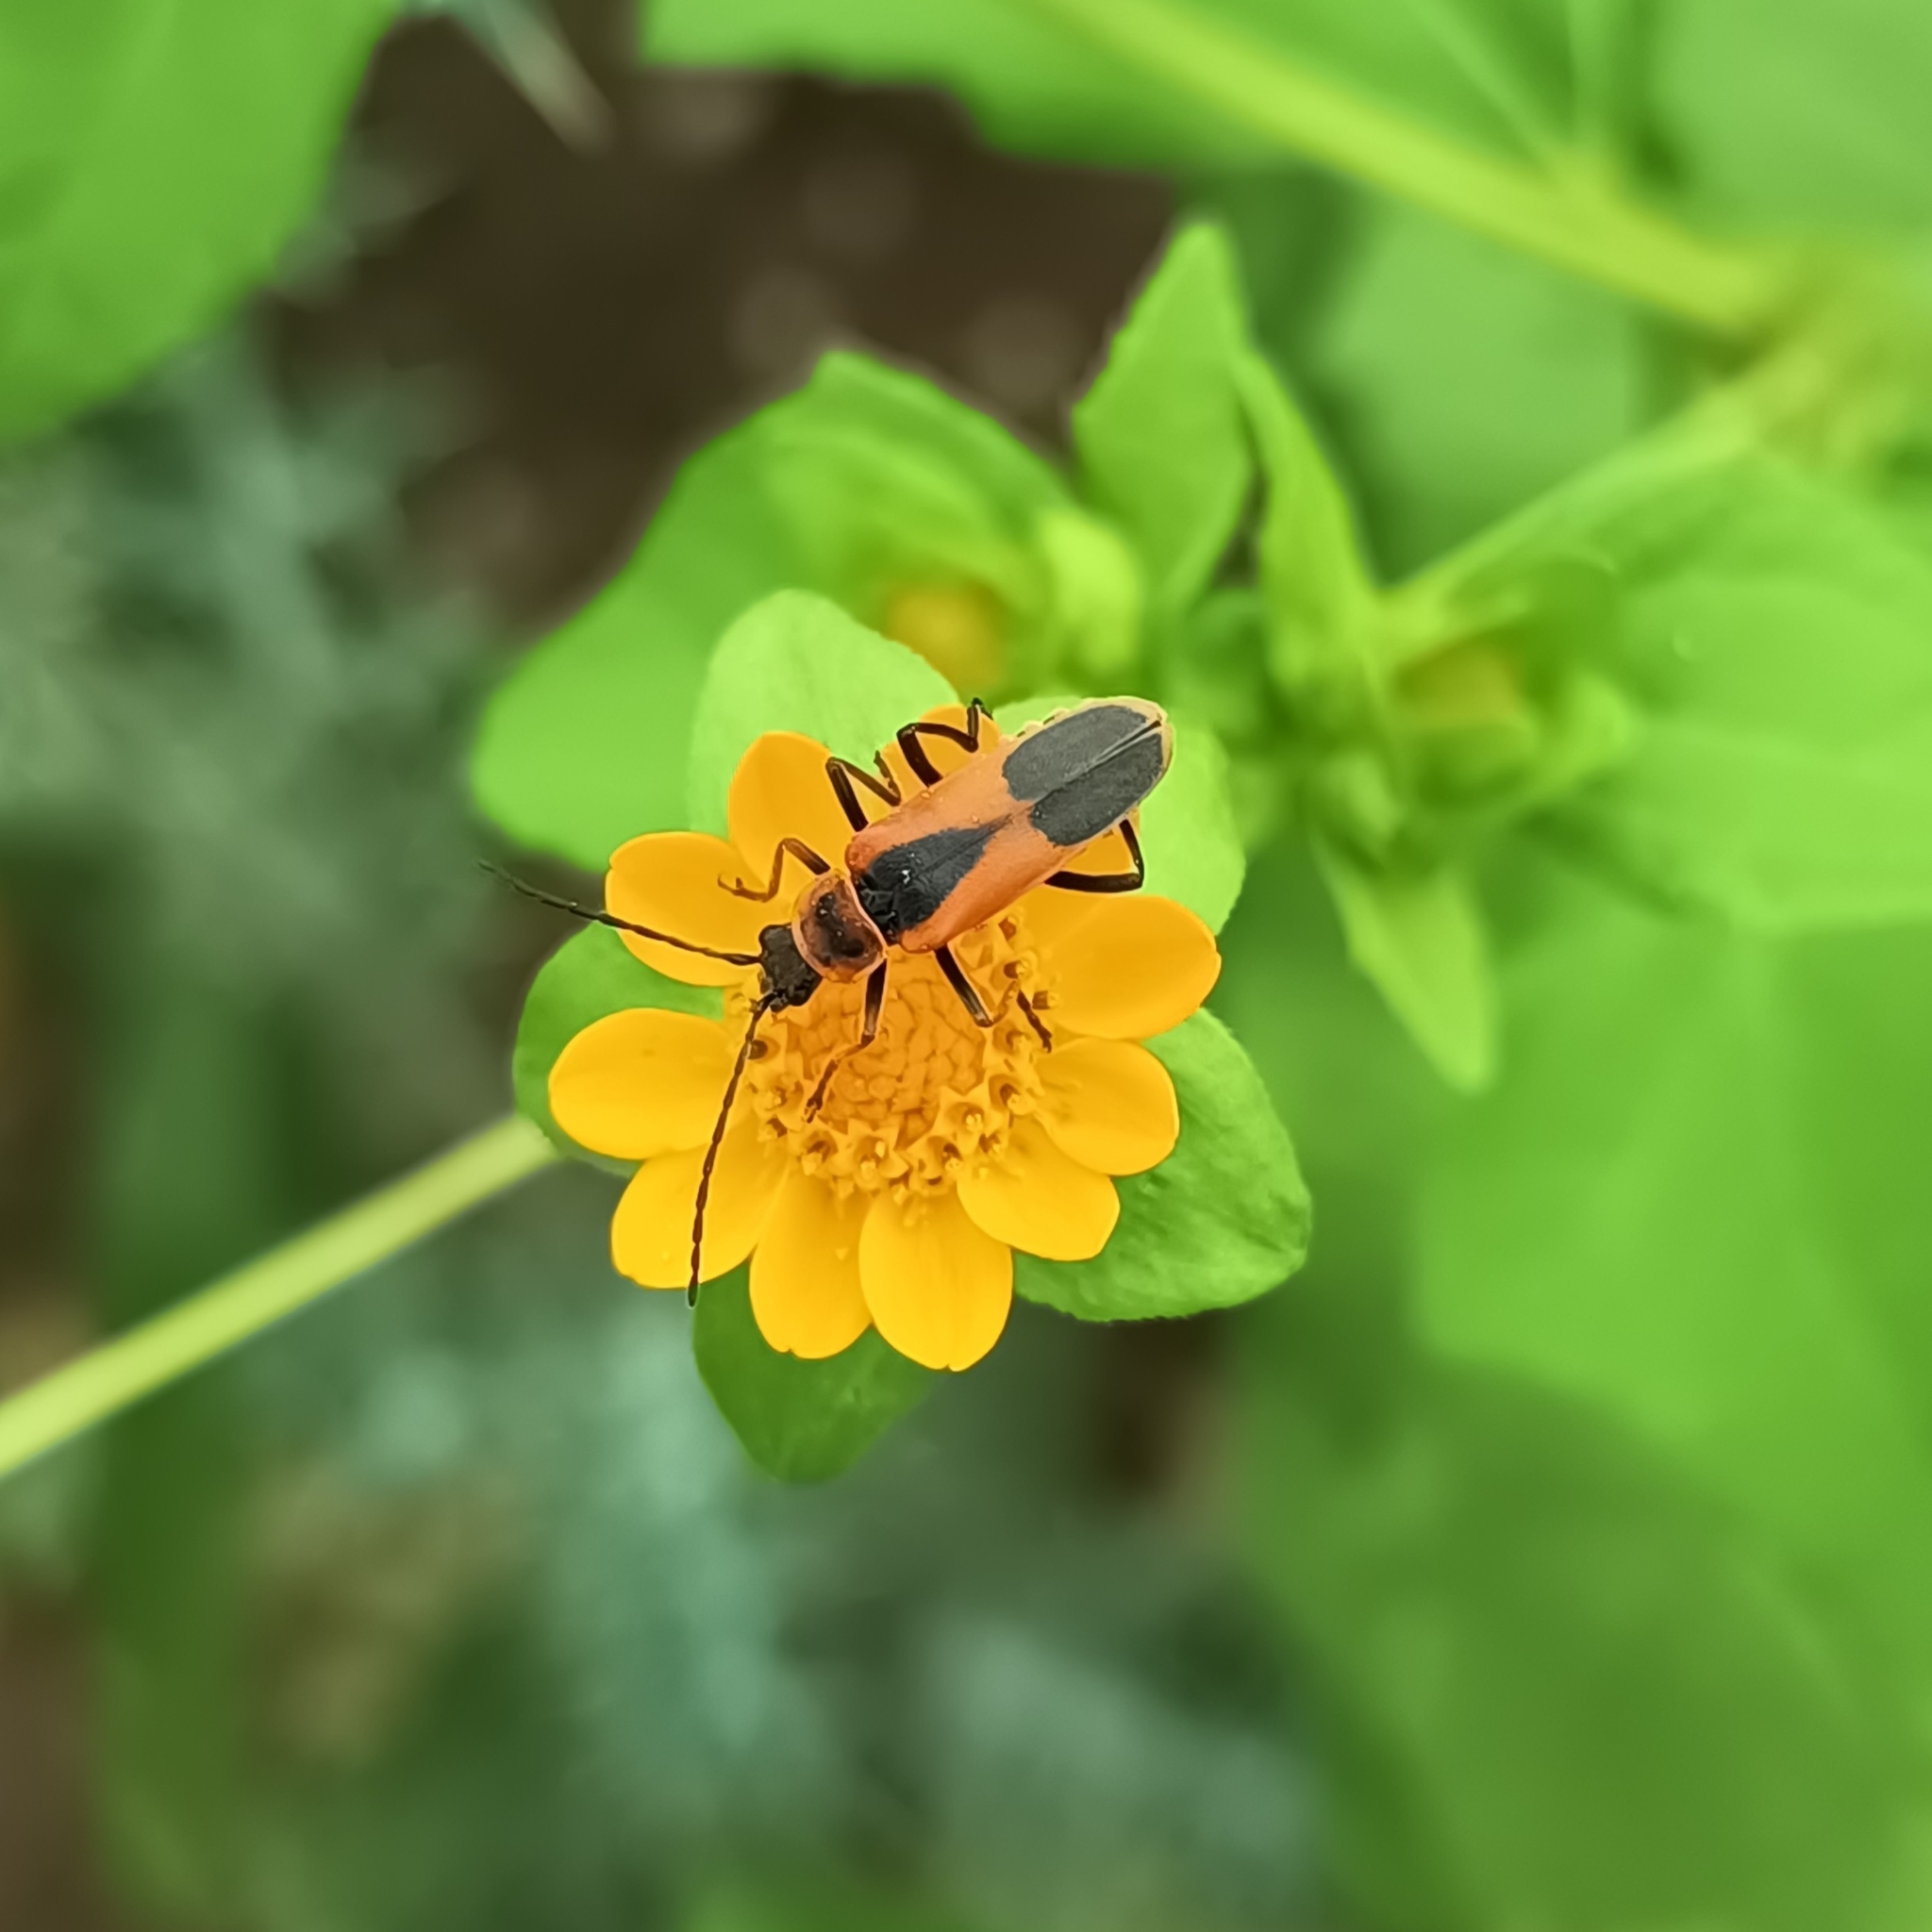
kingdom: Animalia
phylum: Arthropoda
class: Insecta
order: Coleoptera
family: Cantharidae
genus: Chauliognathus
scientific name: Chauliognathus limbicollis
